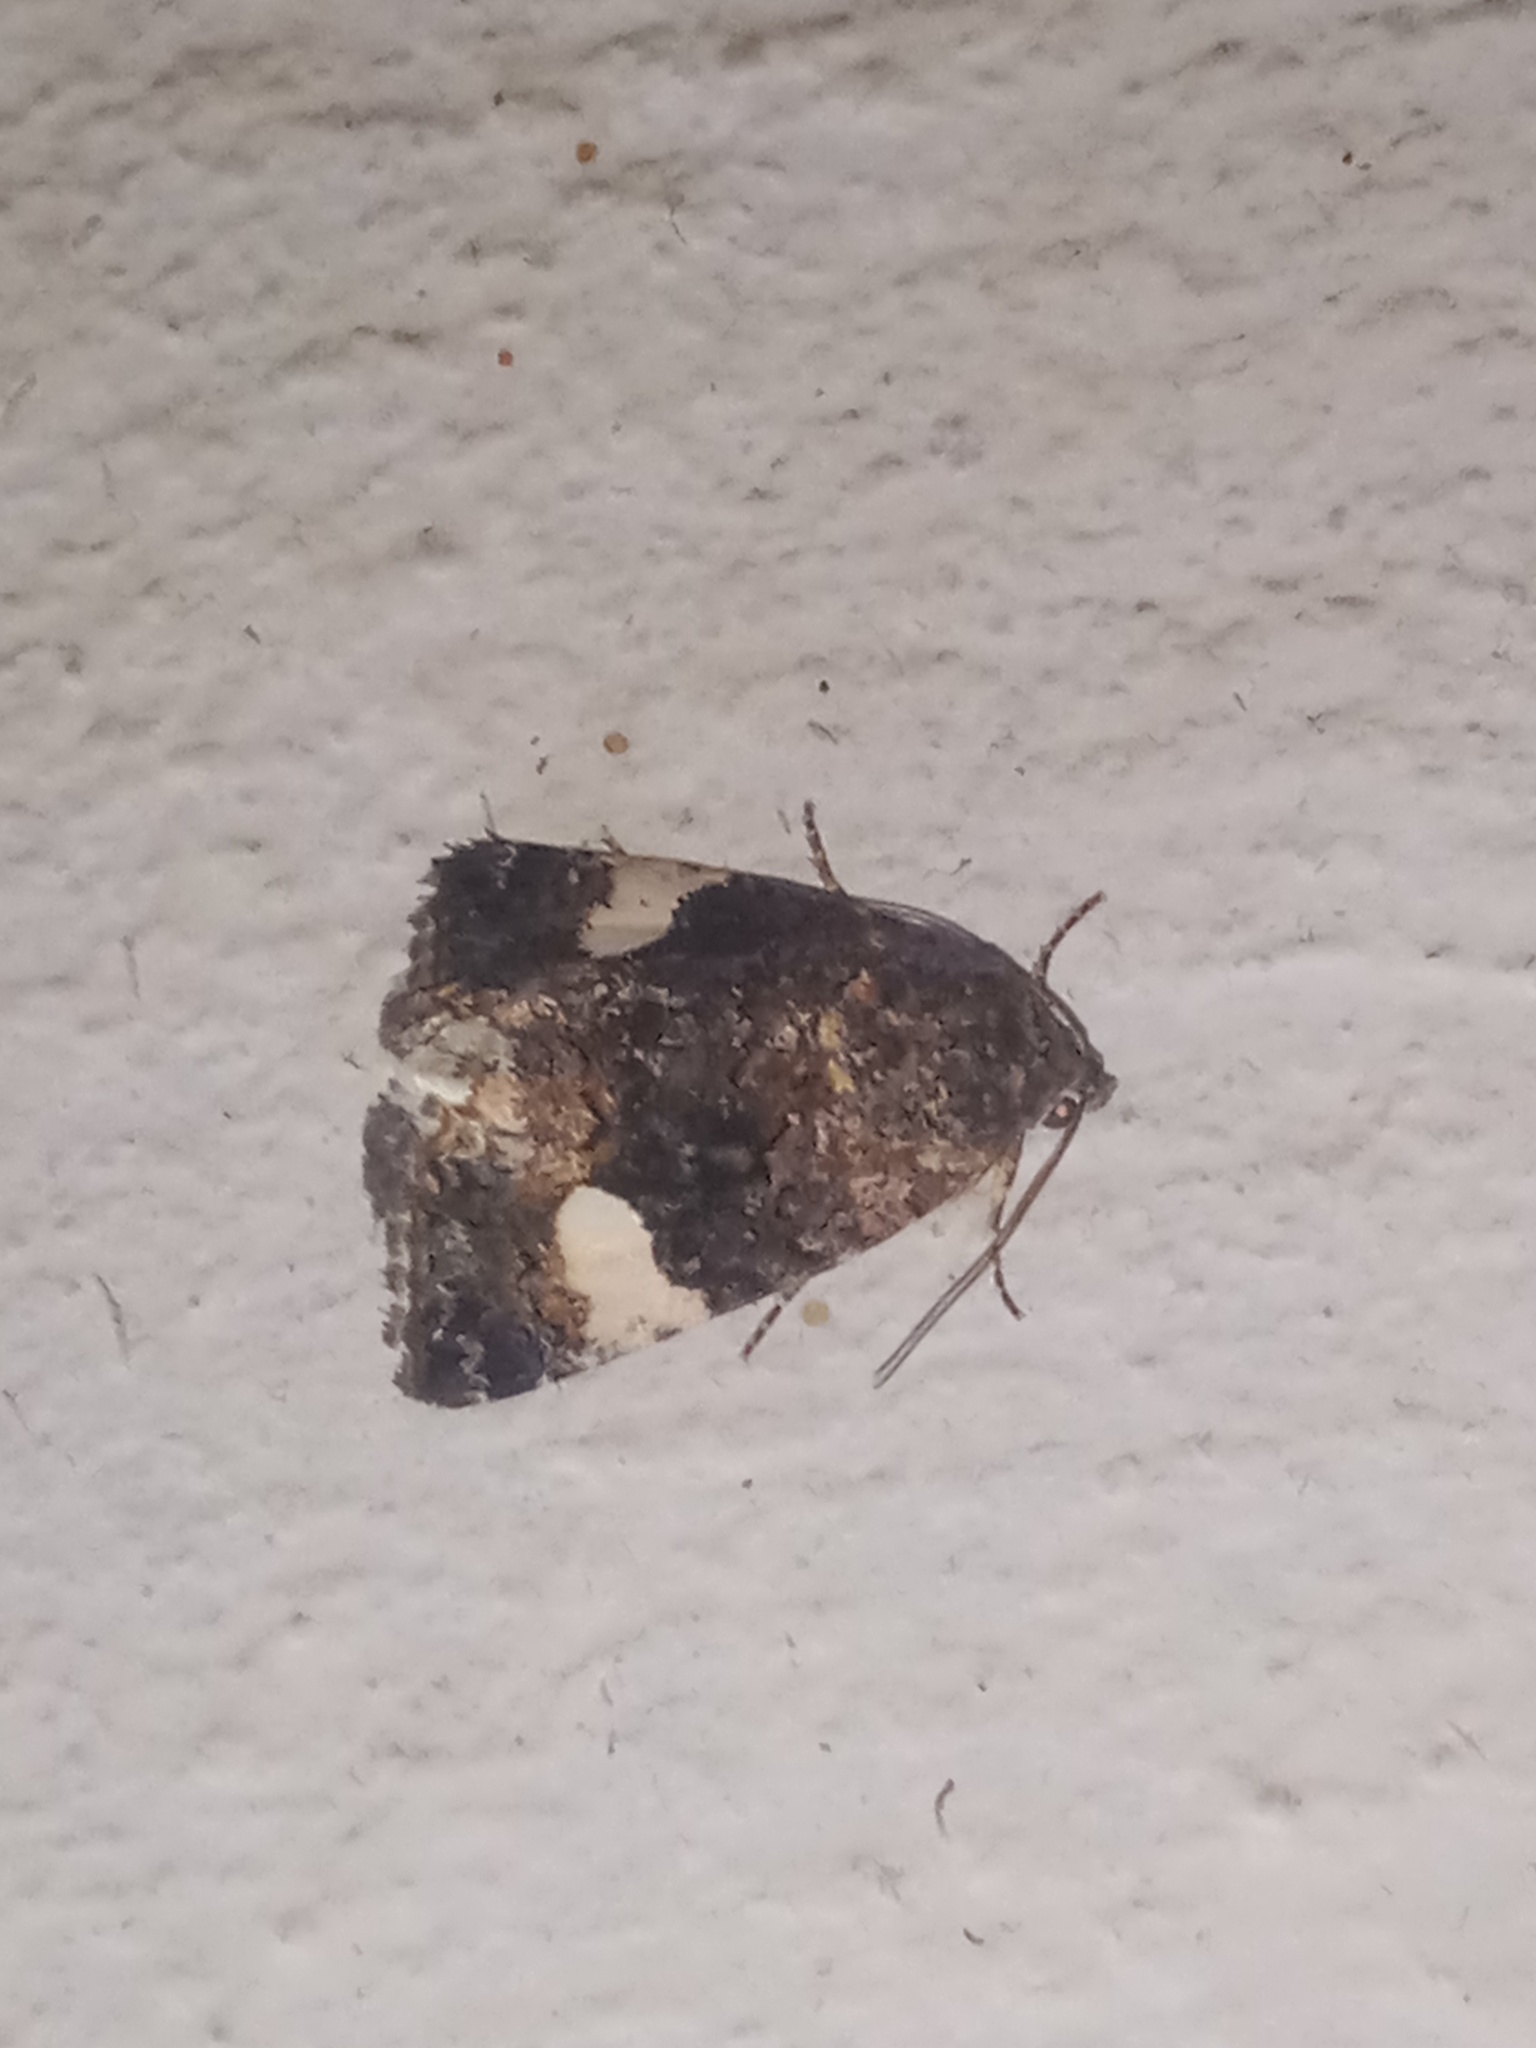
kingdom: Animalia
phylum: Arthropoda
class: Insecta
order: Lepidoptera
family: Erebidae
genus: Tyta
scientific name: Tyta luctuosa
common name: Four-spotted
